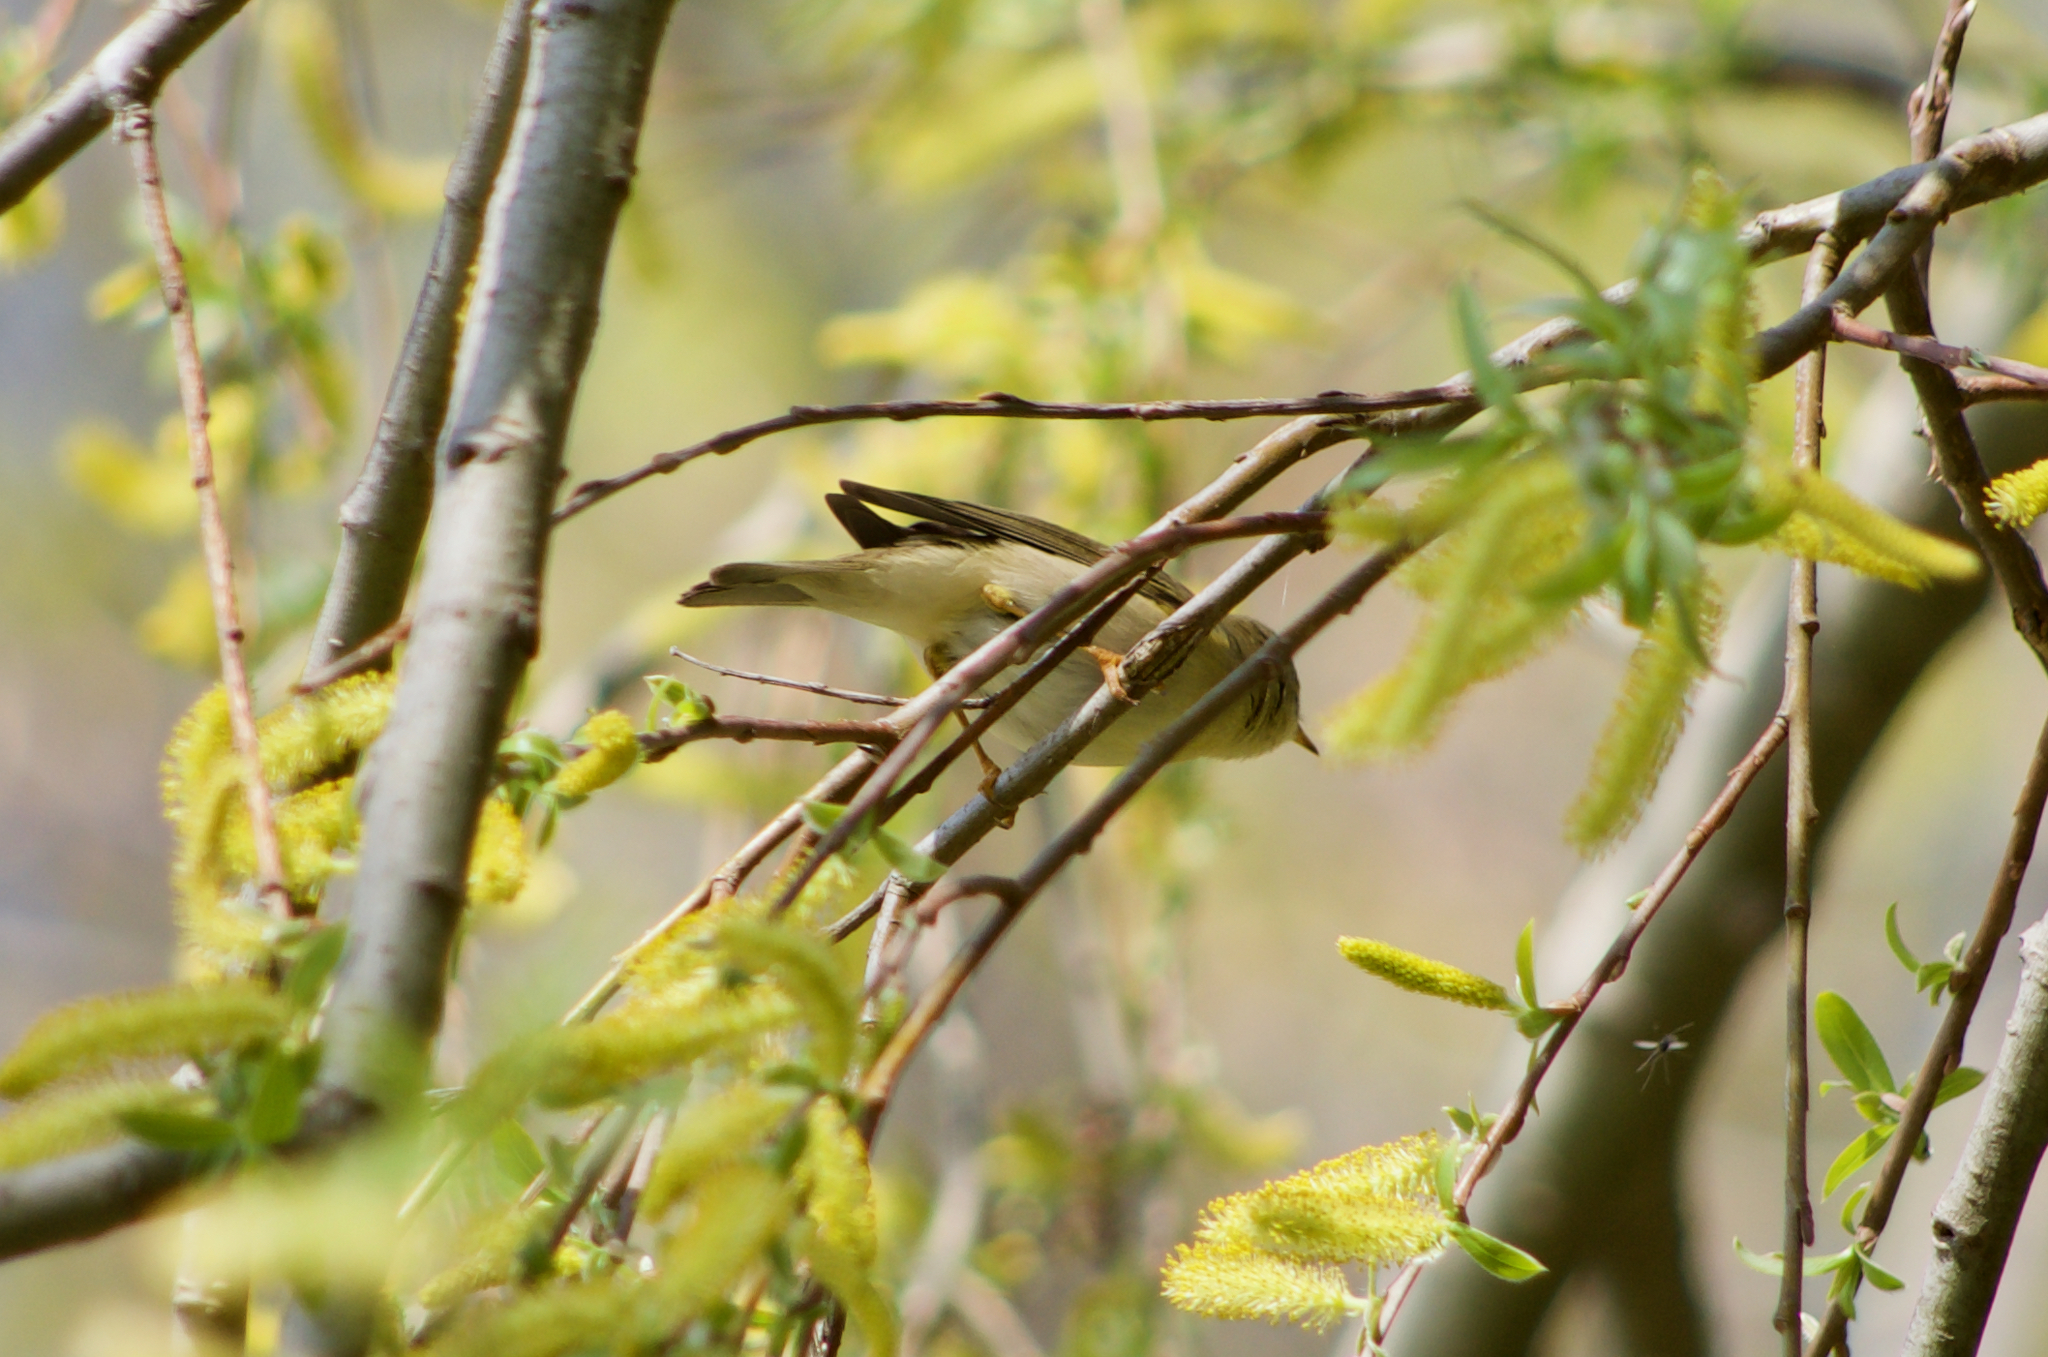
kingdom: Animalia
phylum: Chordata
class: Aves
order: Passeriformes
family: Phylloscopidae
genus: Phylloscopus
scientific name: Phylloscopus trochilus
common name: Willow warbler
